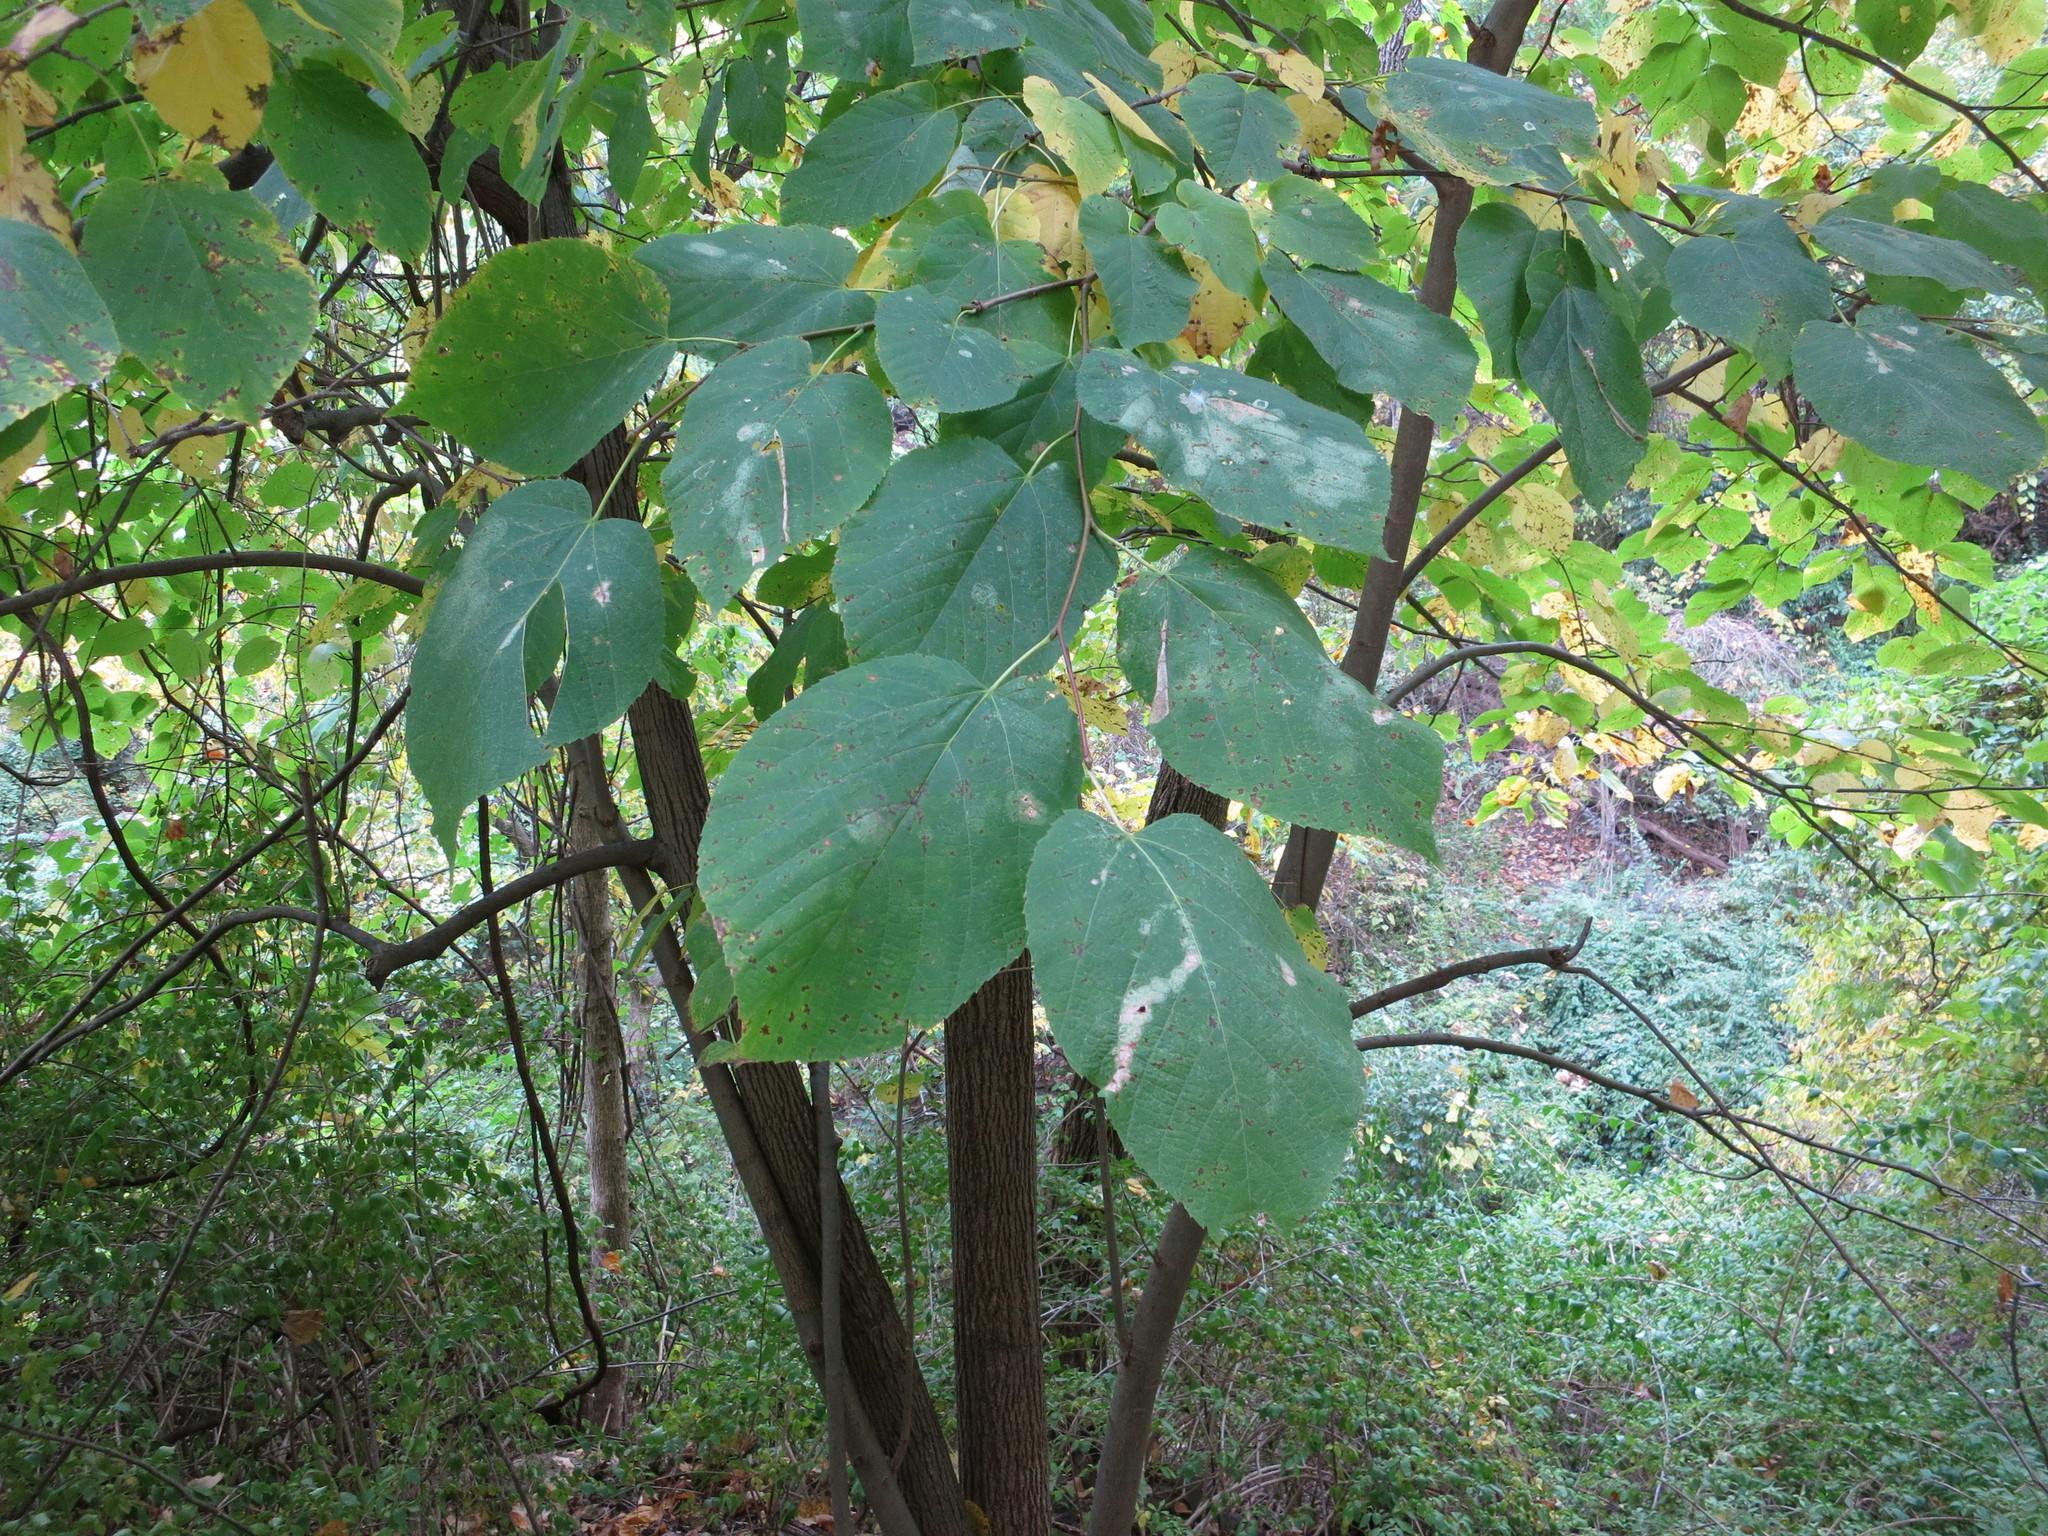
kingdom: Plantae
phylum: Tracheophyta
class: Magnoliopsida
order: Malvales
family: Malvaceae
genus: Tilia
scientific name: Tilia americana
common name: Basswood
